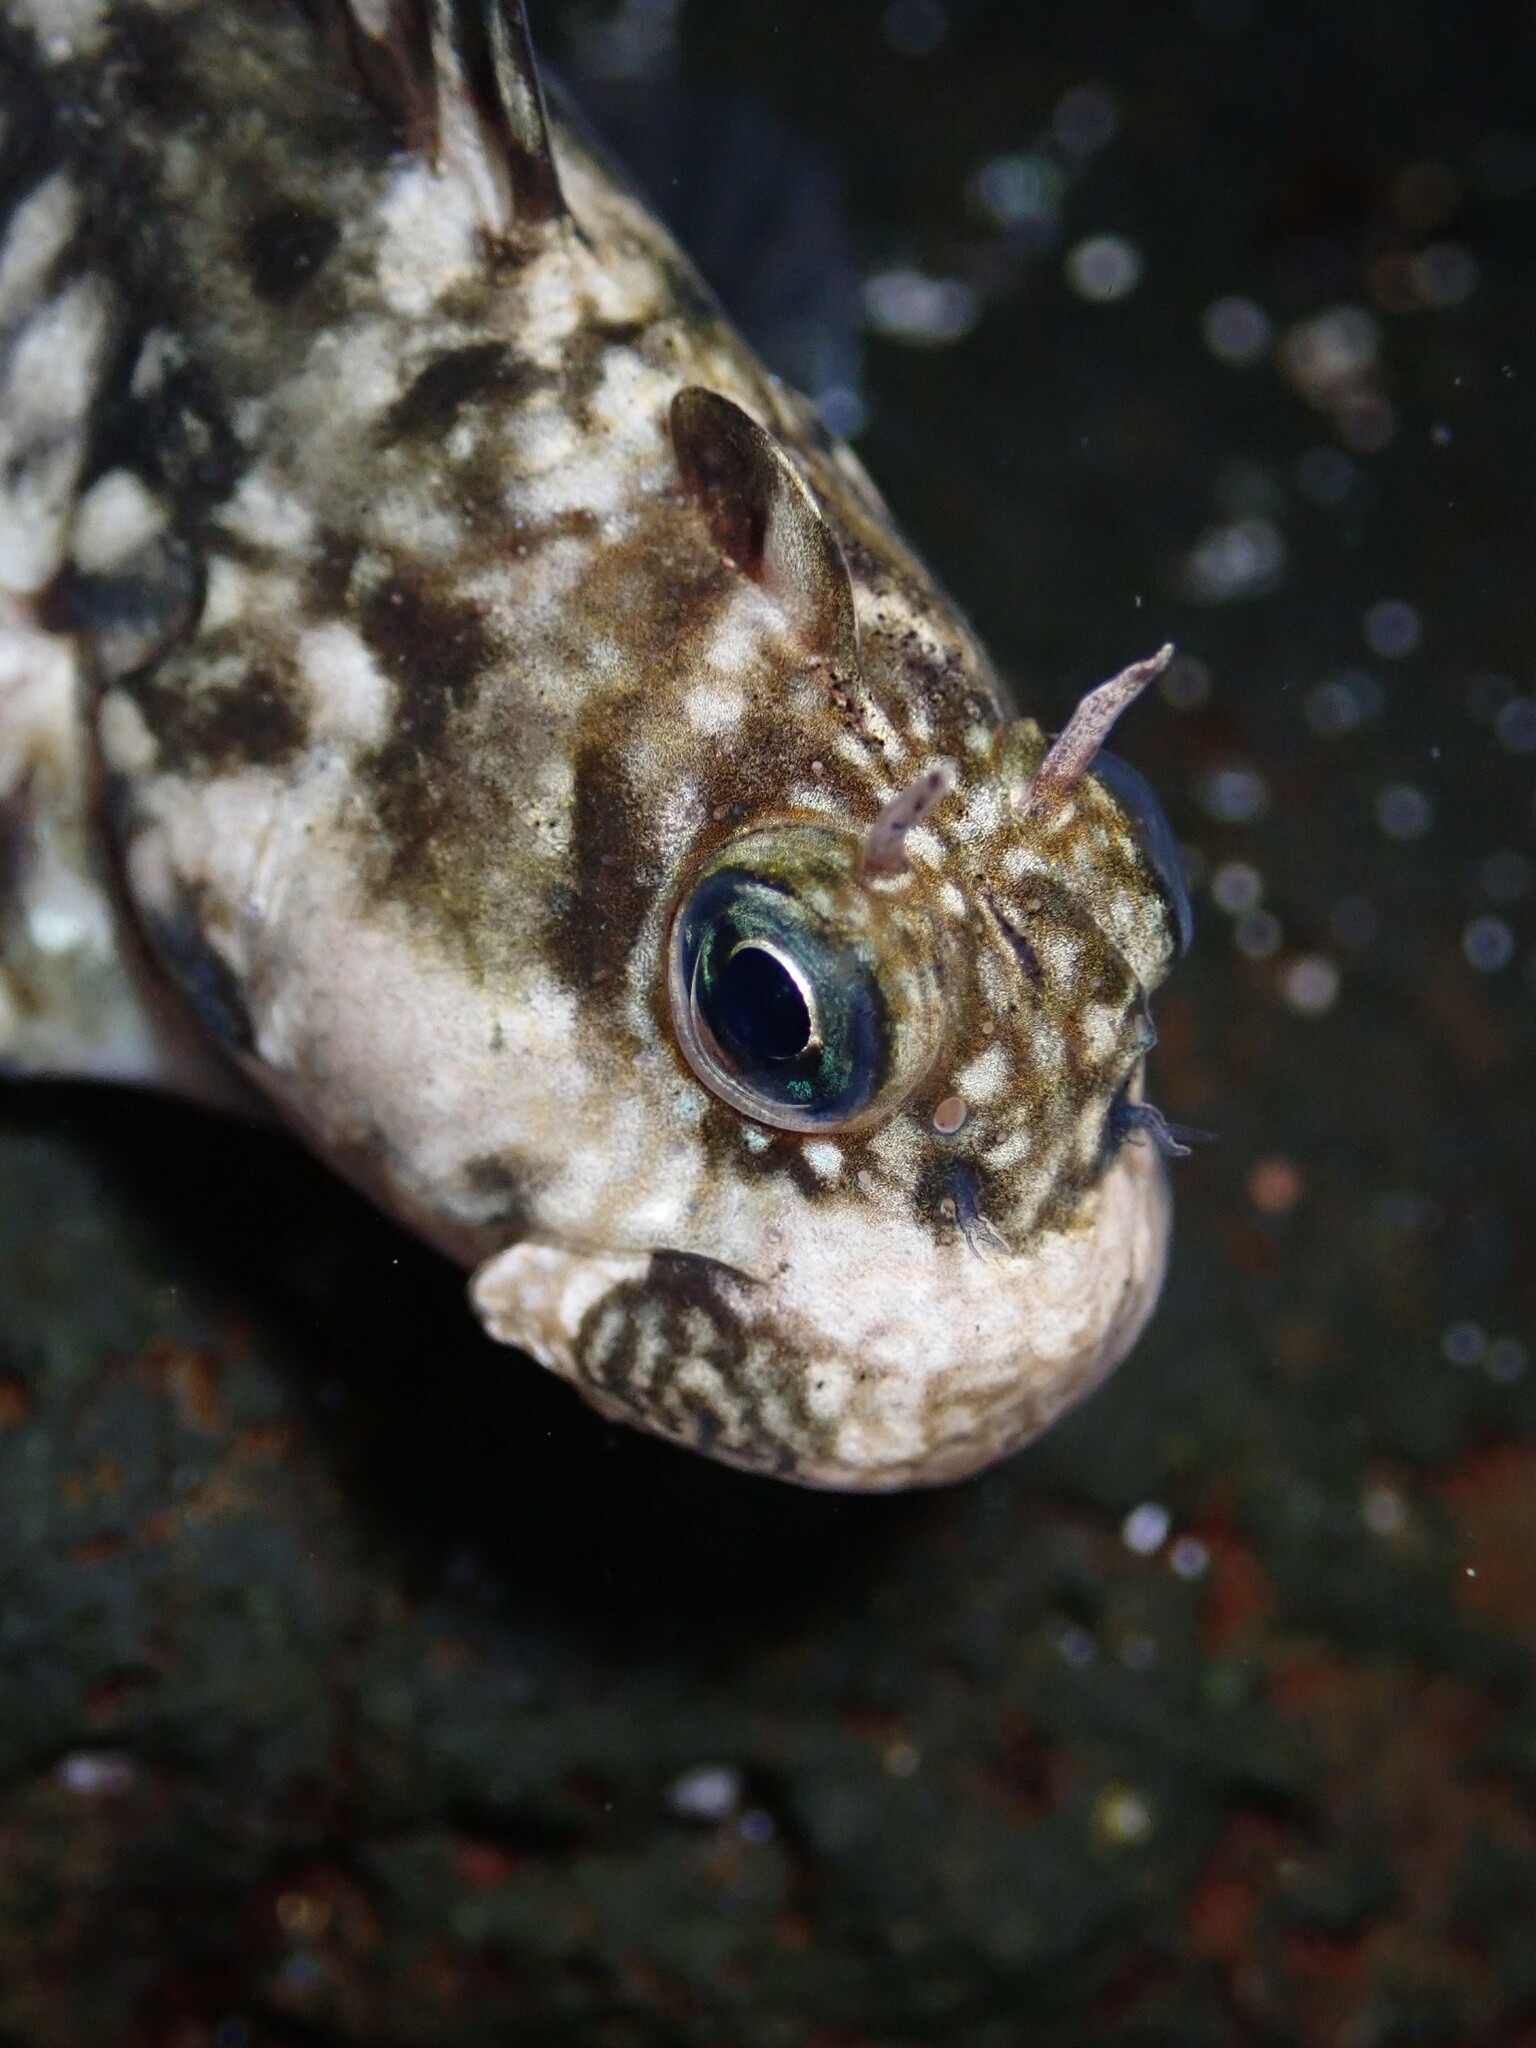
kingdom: Animalia
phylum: Chordata
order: Perciformes
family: Blenniidae
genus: Istiblennius
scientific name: Istiblennius zebra
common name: Zebra blenny
